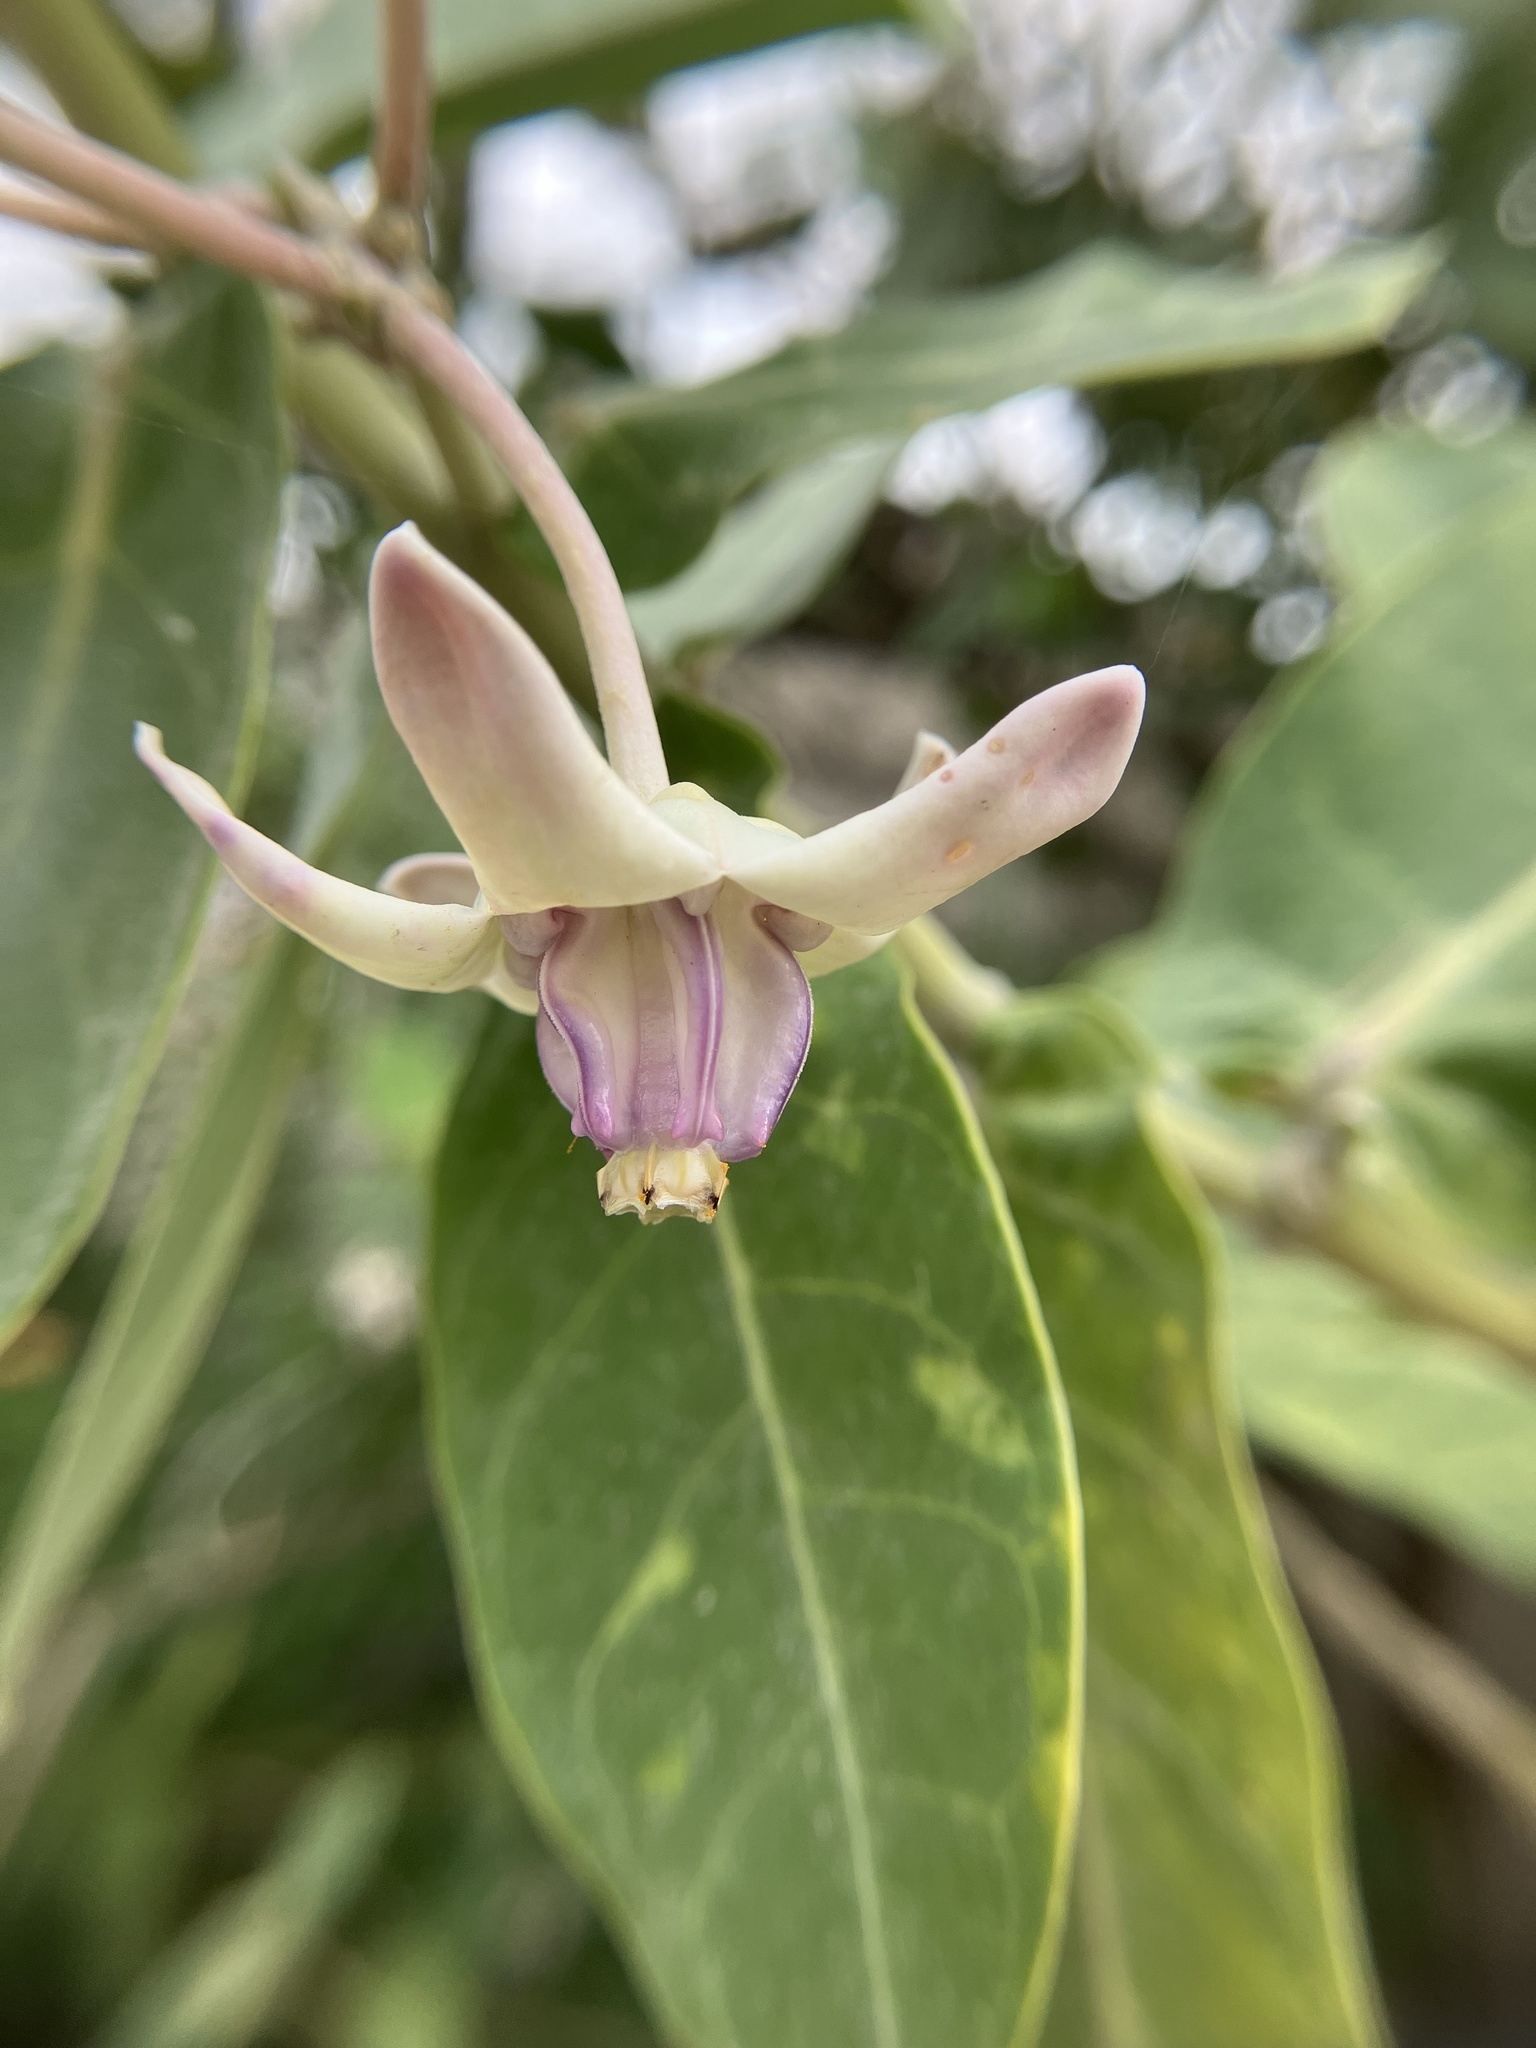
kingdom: Plantae
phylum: Tracheophyta
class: Magnoliopsida
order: Gentianales
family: Apocynaceae
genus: Calotropis
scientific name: Calotropis gigantea
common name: Crown flower
